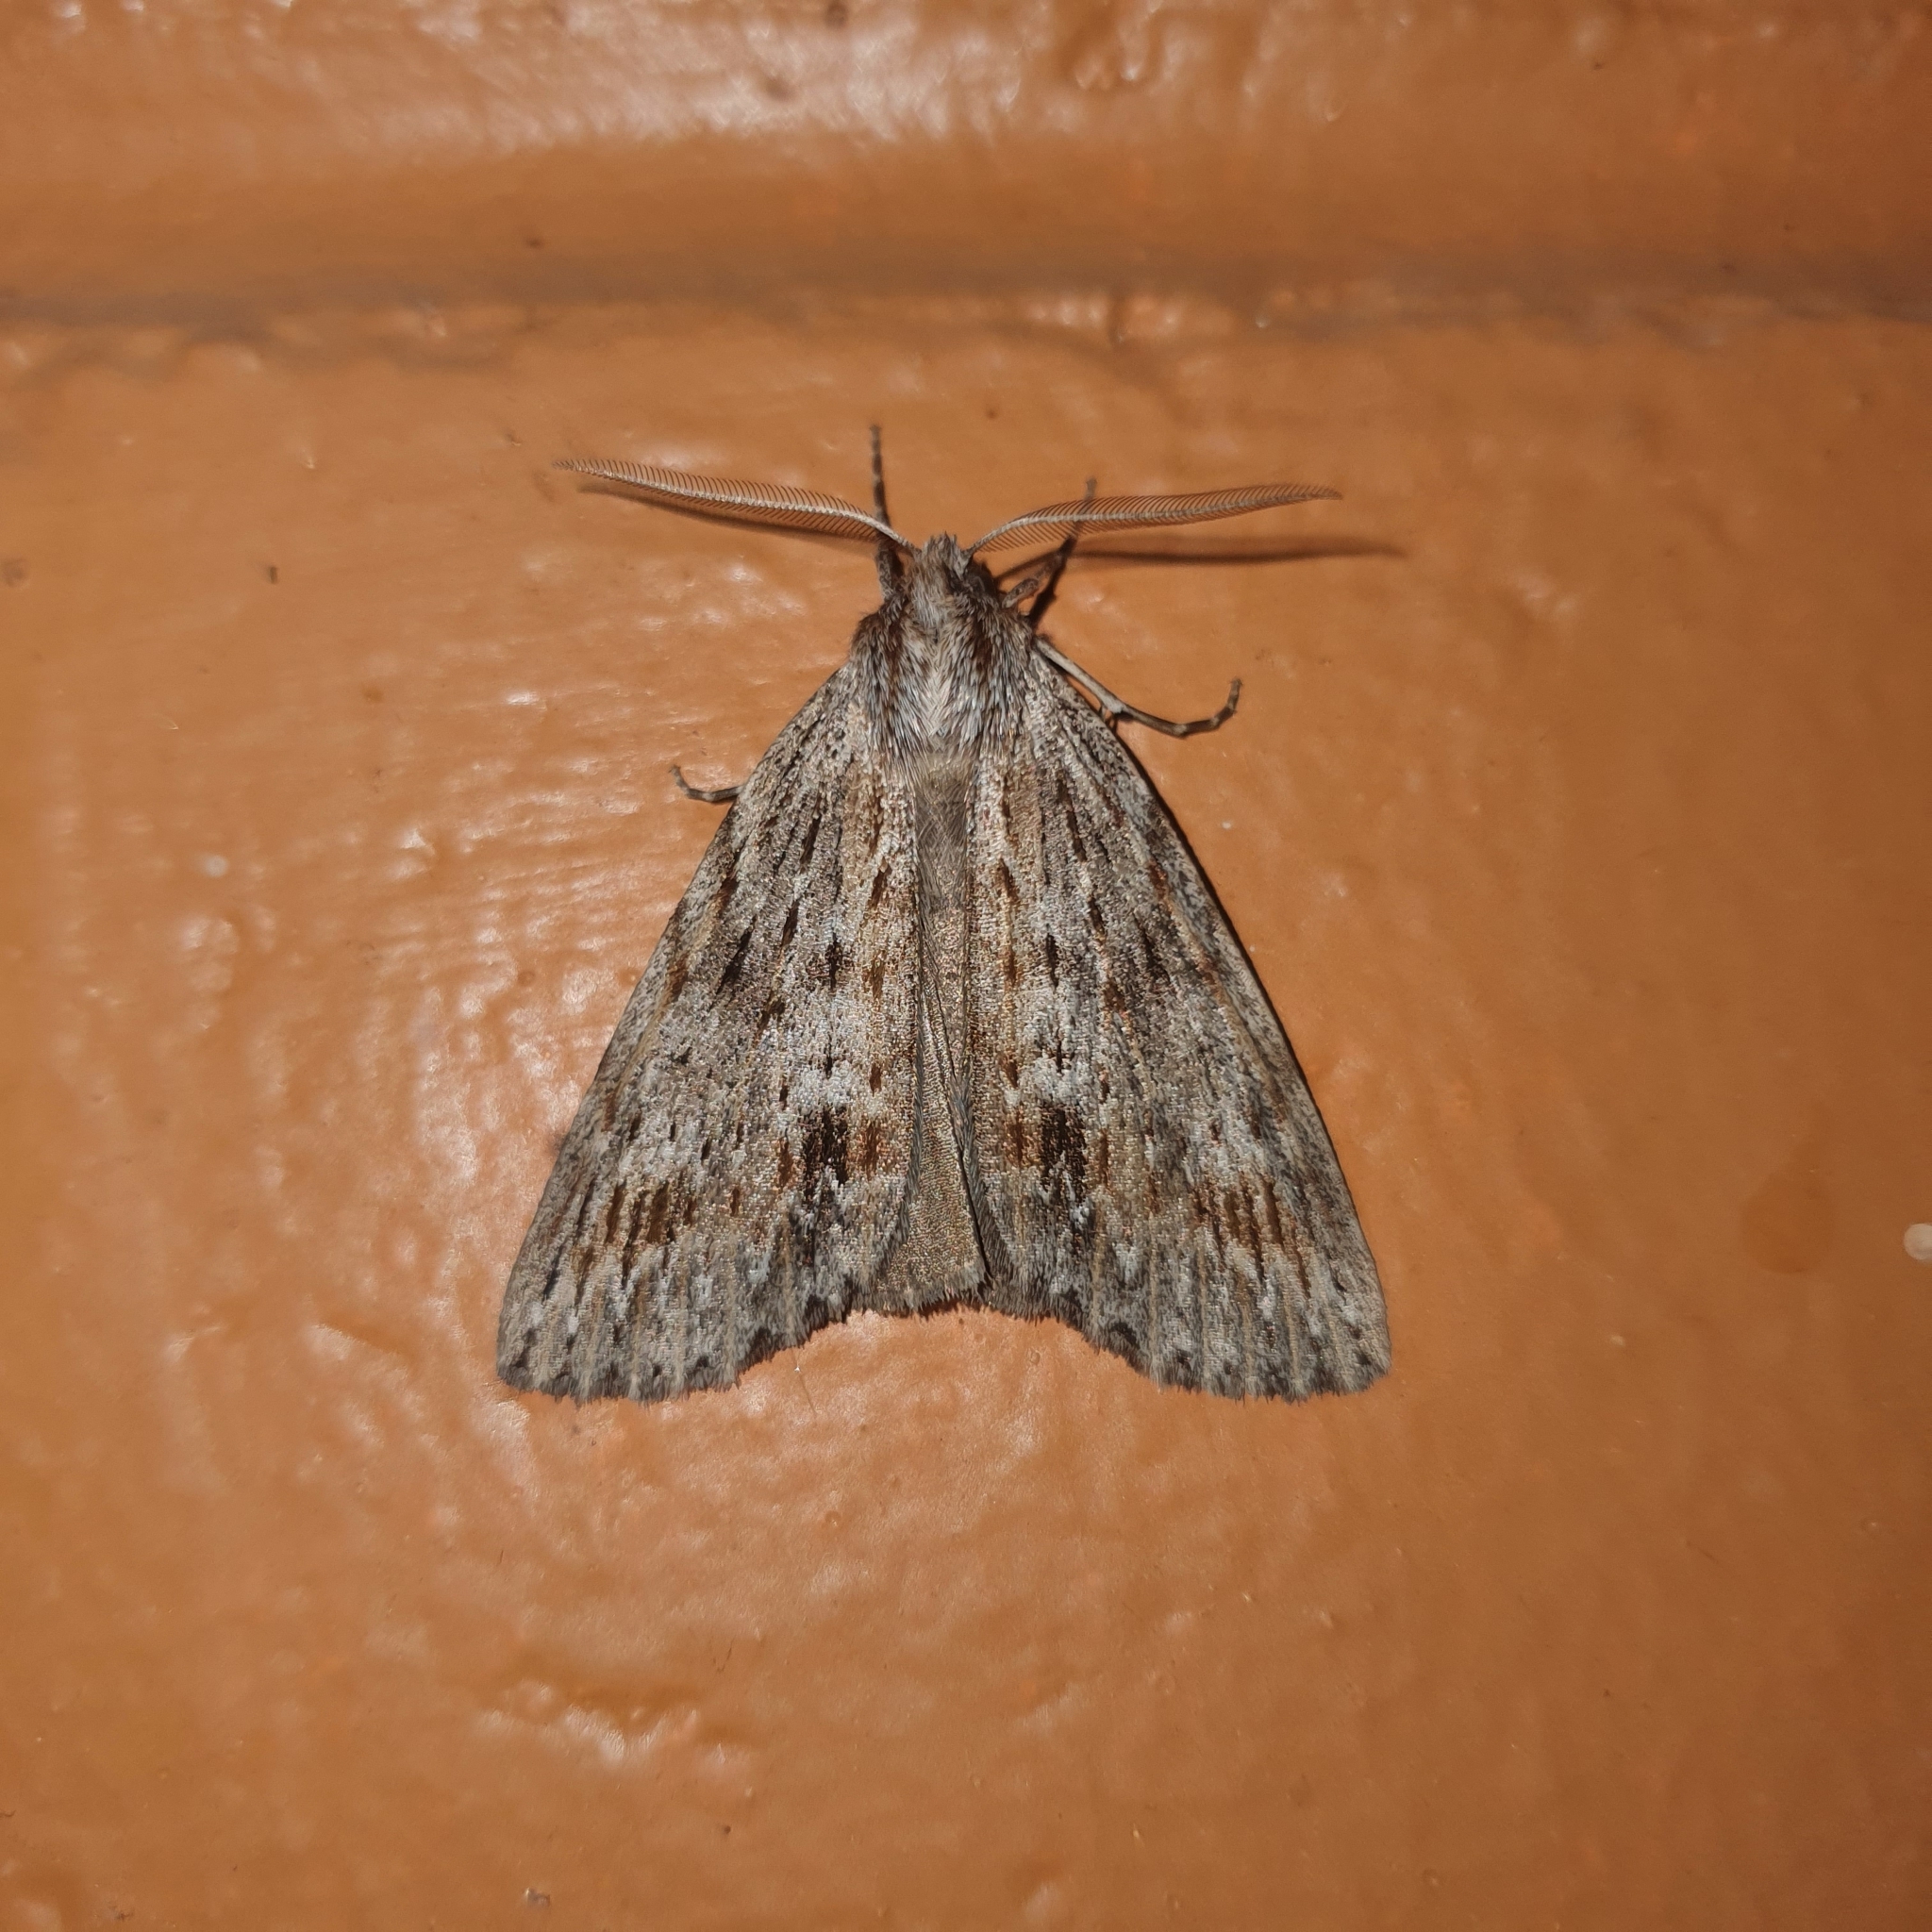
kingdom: Animalia
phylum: Arthropoda
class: Insecta
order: Lepidoptera
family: Geometridae
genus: Chlenias
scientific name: Chlenias banksiaria
